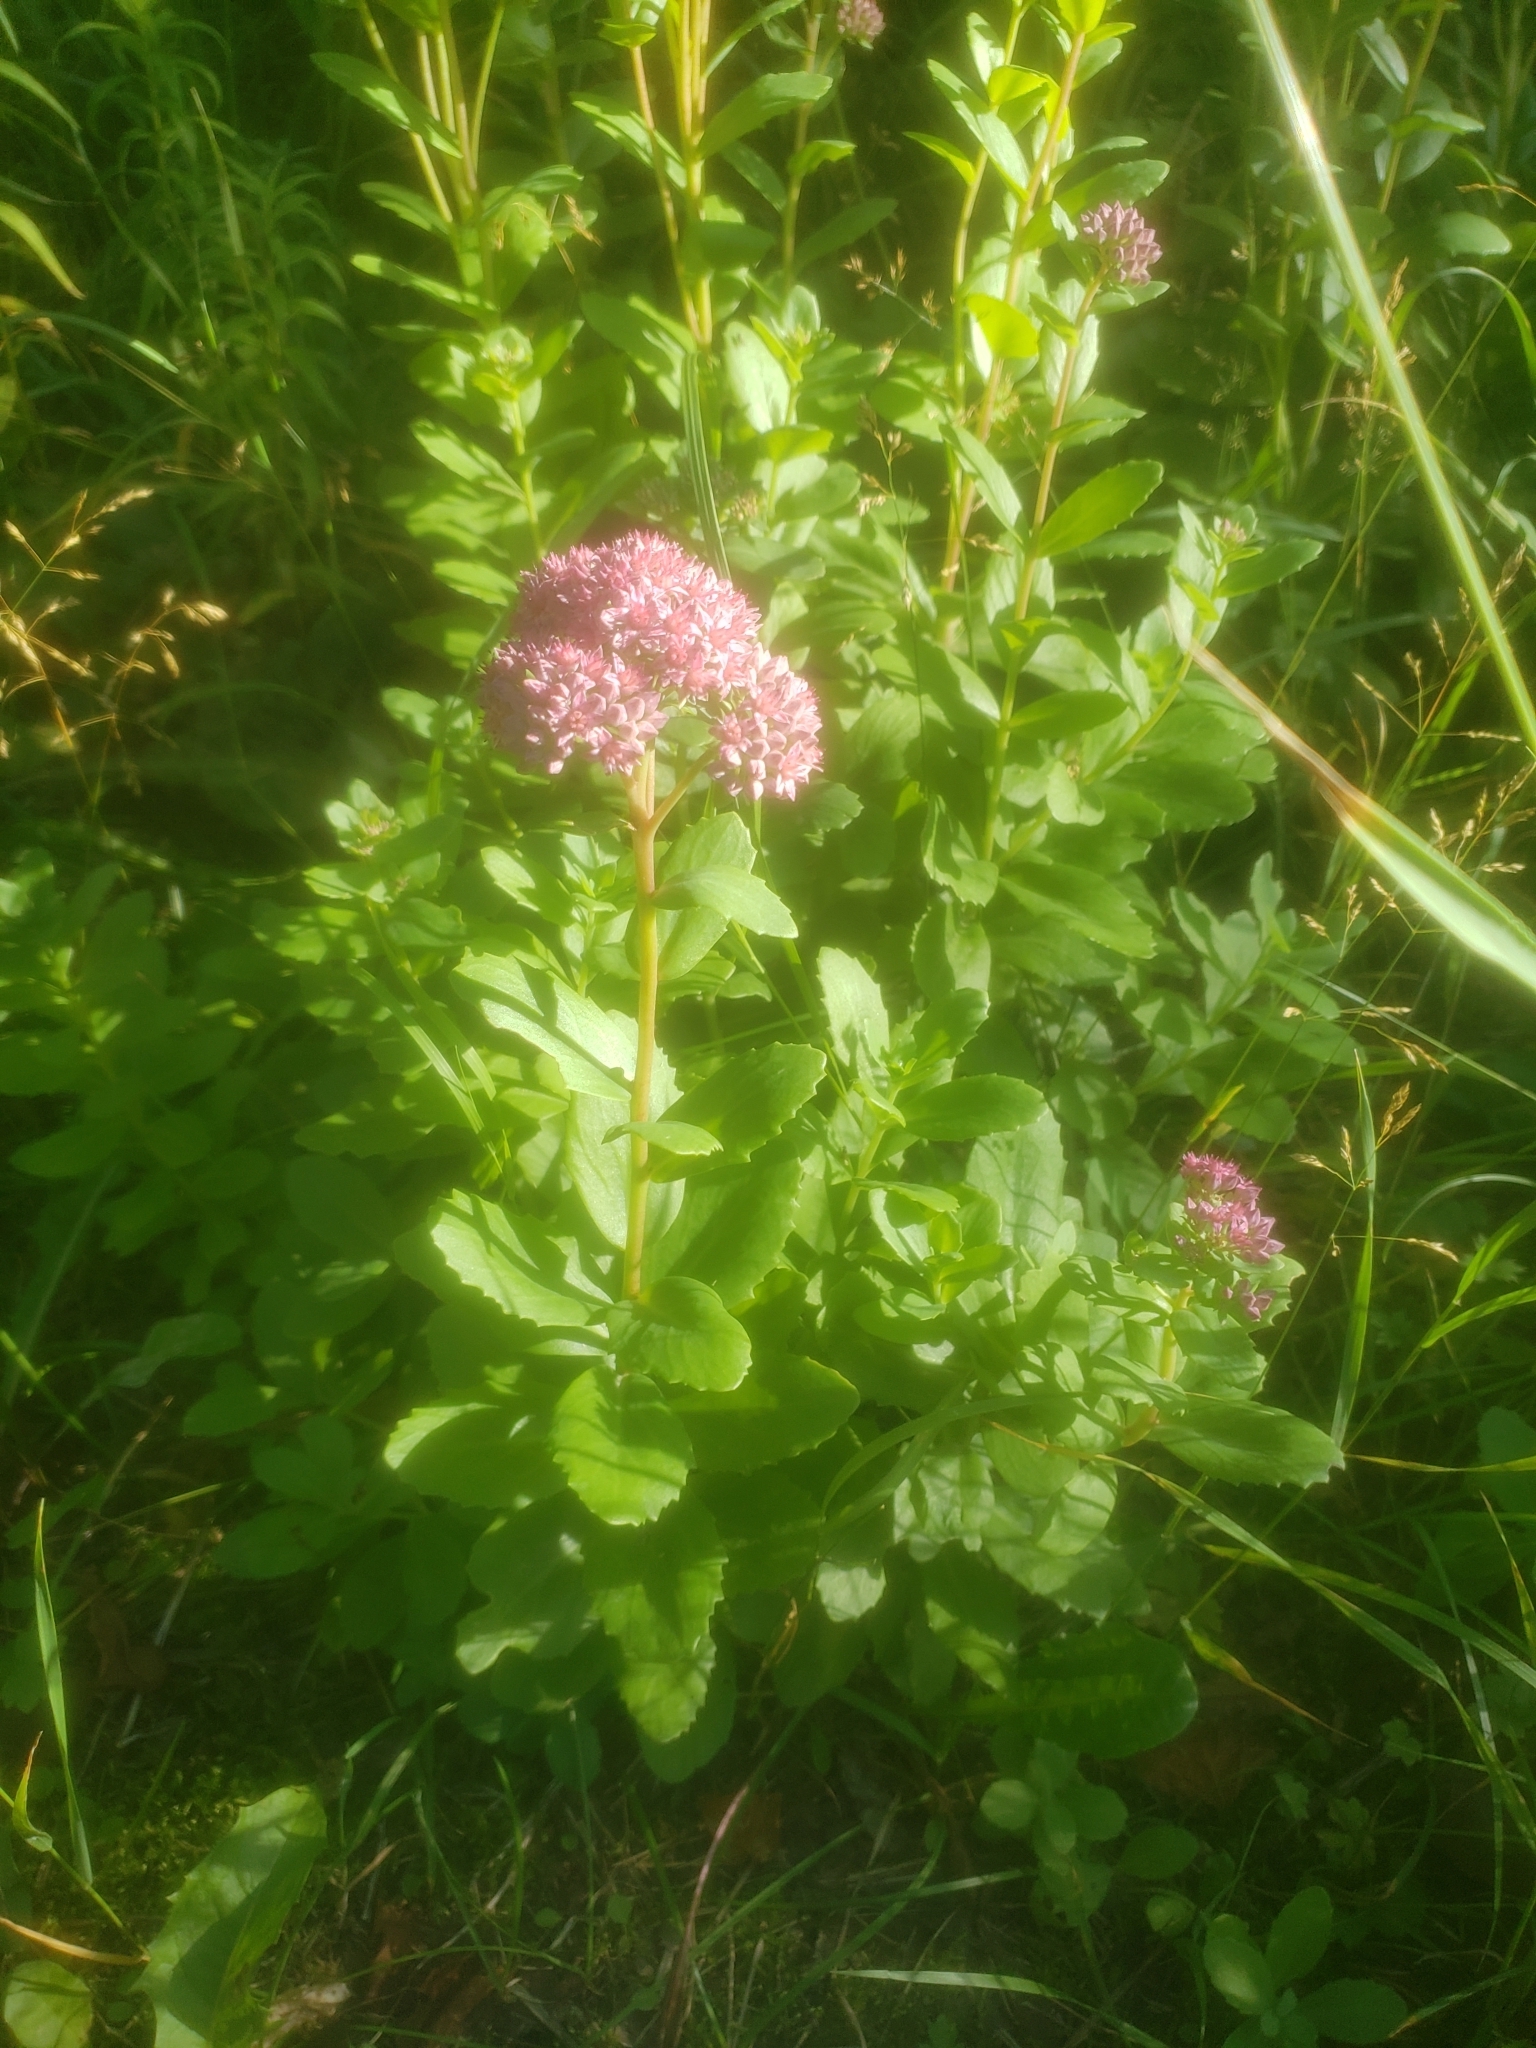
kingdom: Plantae
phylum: Tracheophyta
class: Magnoliopsida
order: Saxifragales
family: Crassulaceae
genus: Hylotelephium
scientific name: Hylotelephium telephium
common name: Live-forever
